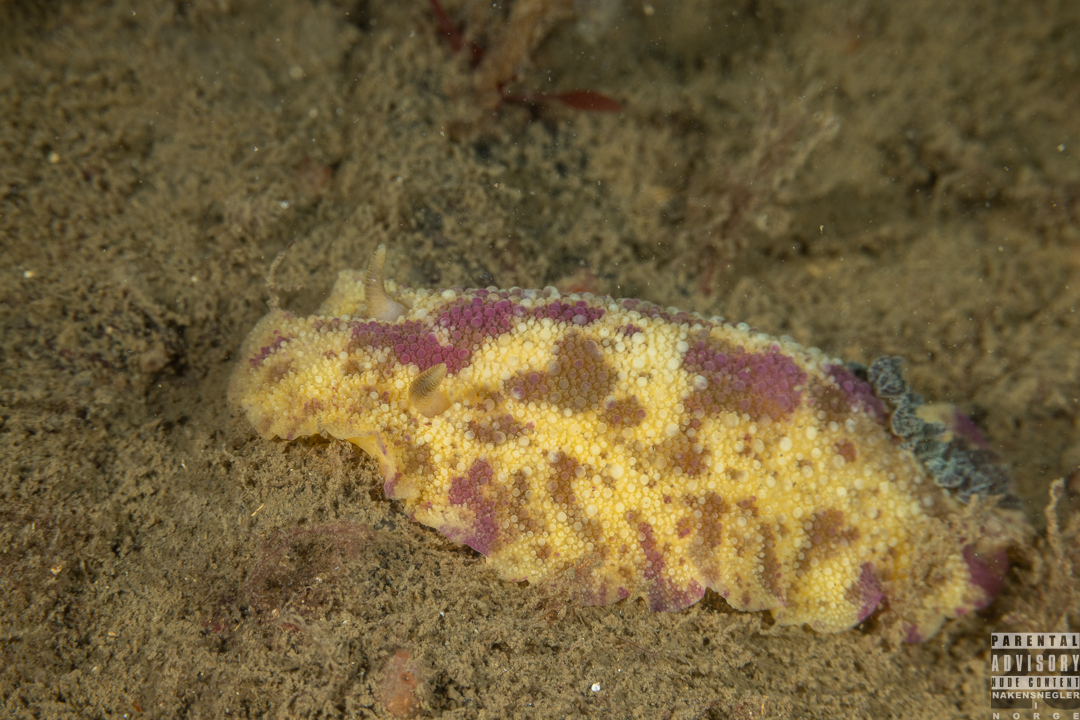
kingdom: Animalia
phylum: Mollusca
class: Gastropoda
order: Nudibranchia
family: Dorididae
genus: Doris
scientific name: Doris pseudoargus
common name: Sea lemon
